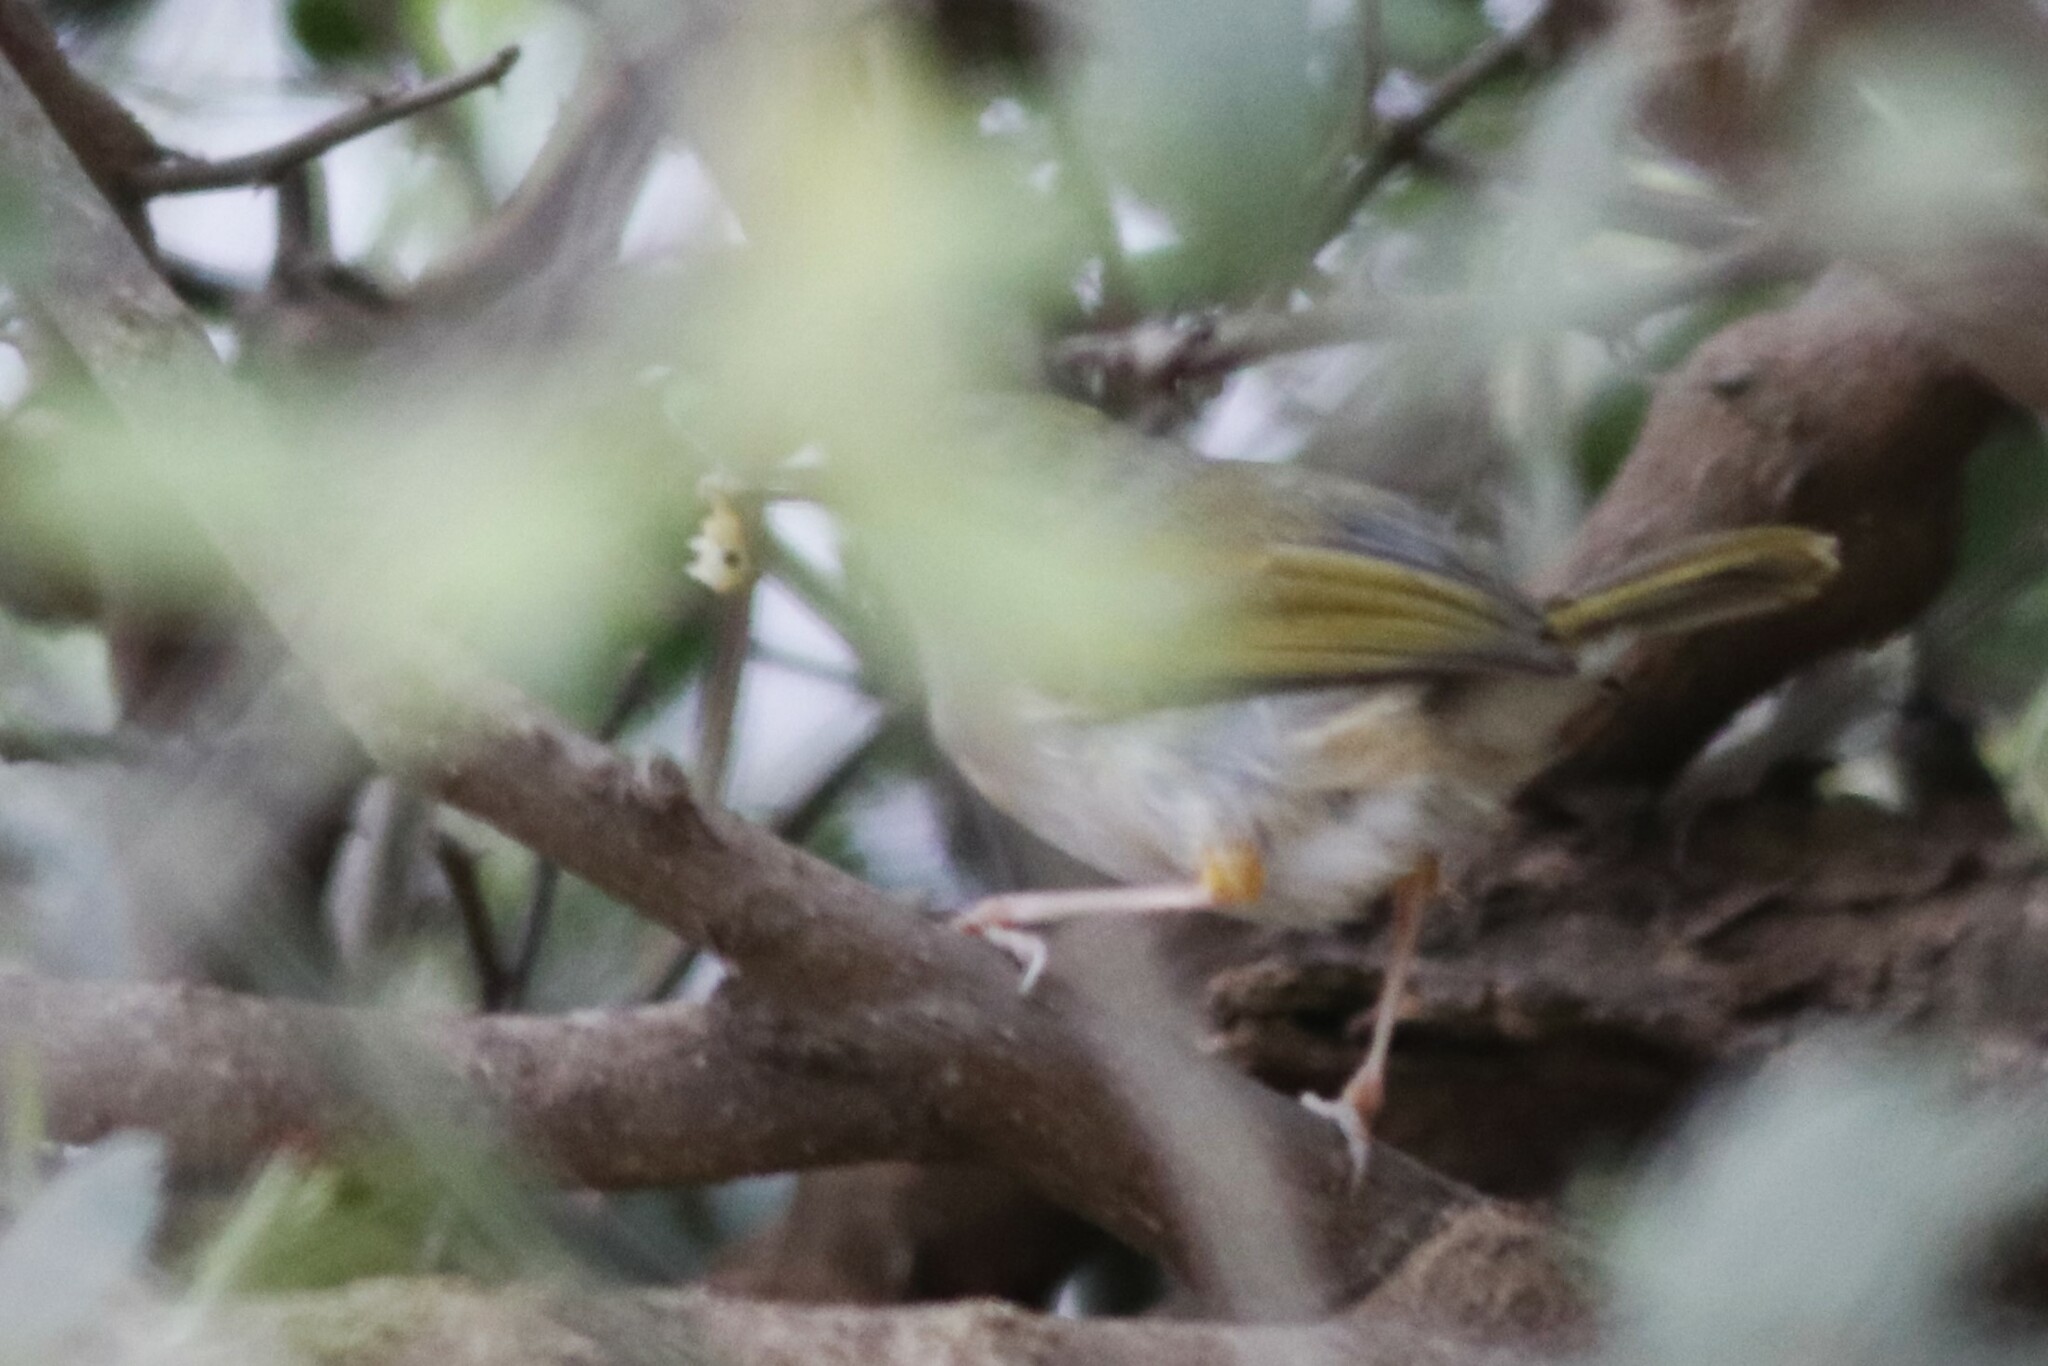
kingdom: Animalia
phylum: Chordata
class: Aves
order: Passeriformes
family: Cisticolidae
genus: Camaroptera
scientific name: Camaroptera brachyura
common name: Green-backed camaroptera
